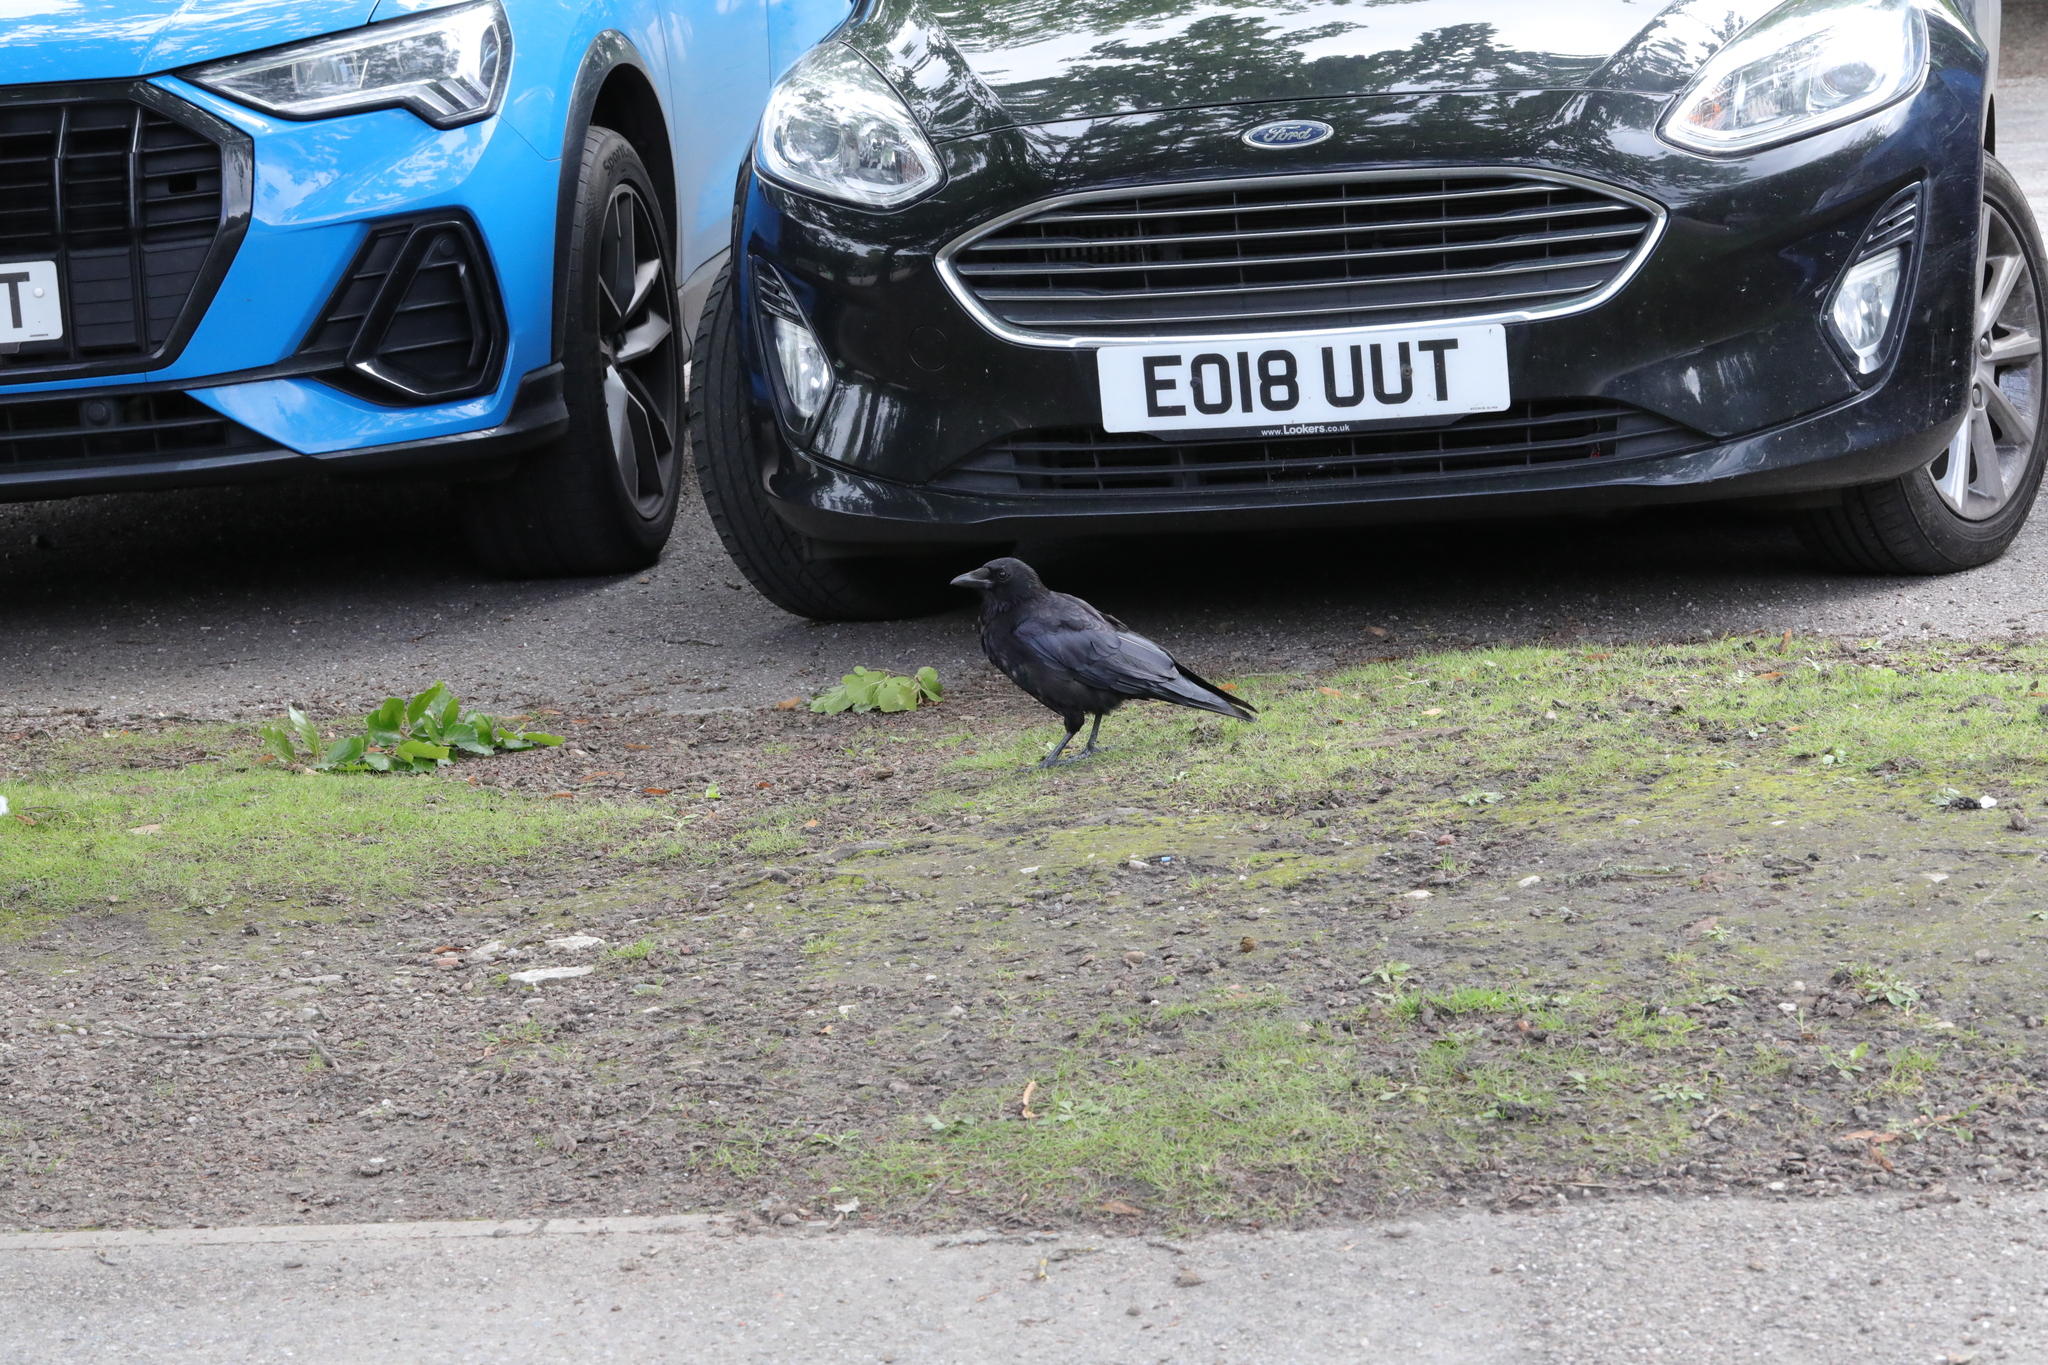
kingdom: Animalia
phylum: Chordata
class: Aves
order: Passeriformes
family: Corvidae
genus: Corvus
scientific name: Corvus corone
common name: Carrion crow
